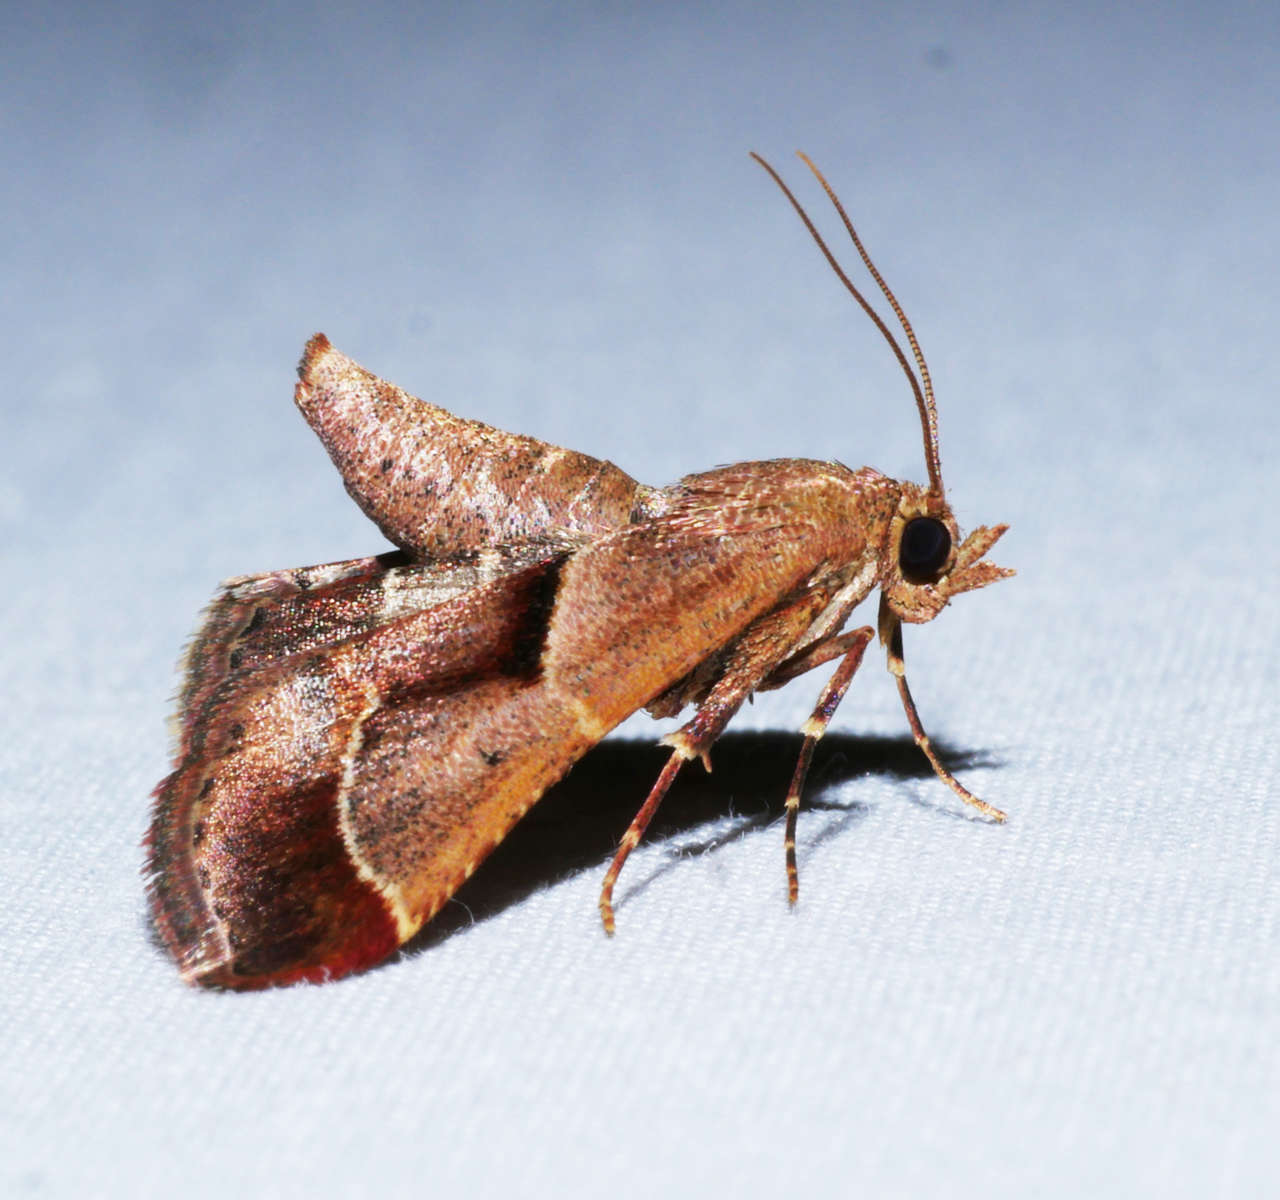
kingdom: Animalia
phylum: Arthropoda
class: Insecta
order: Lepidoptera
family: Pyralidae
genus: Gauna
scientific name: Gauna aegusalis
